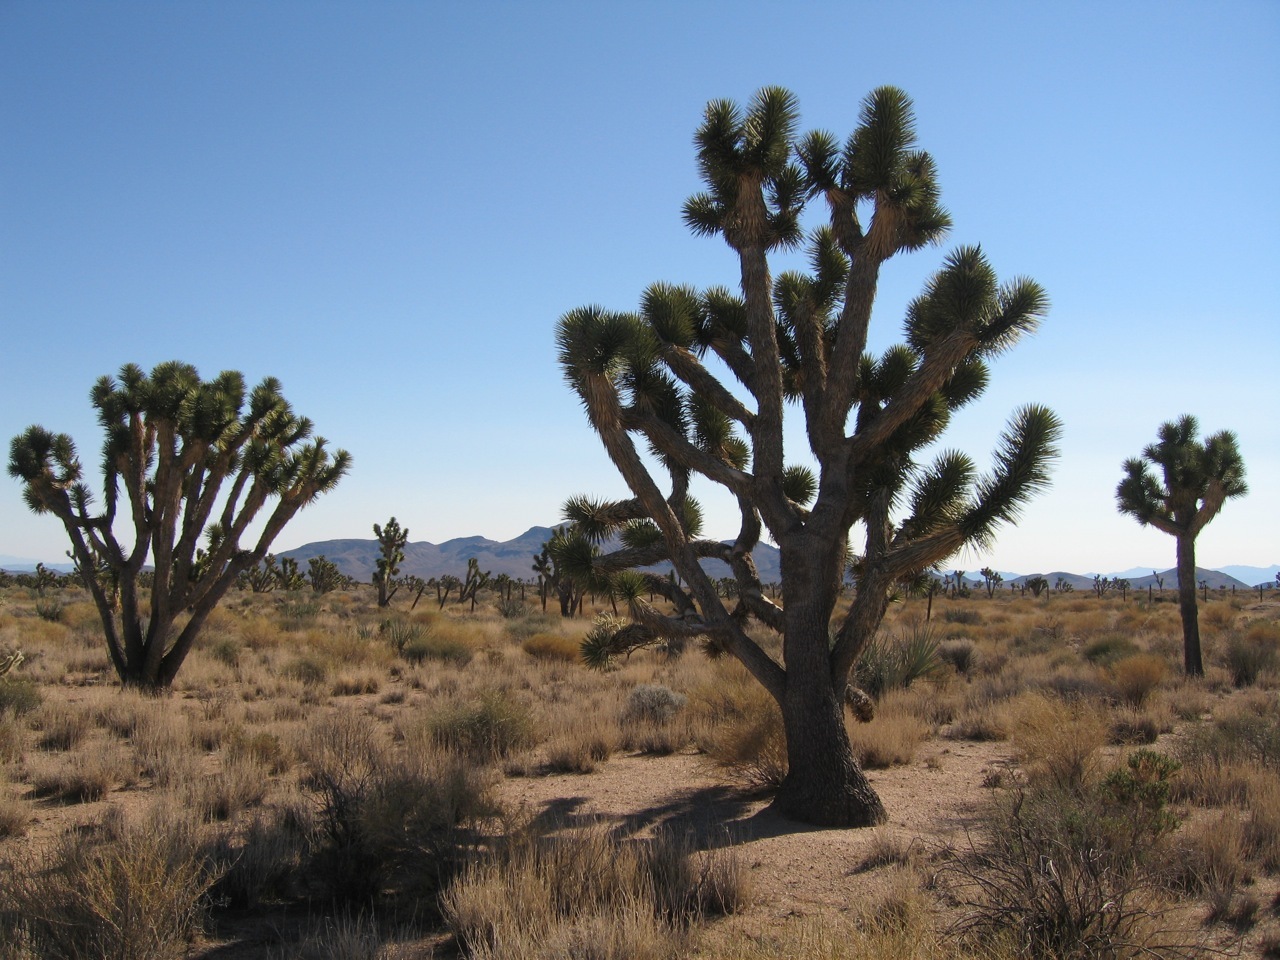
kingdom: Plantae
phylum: Tracheophyta
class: Liliopsida
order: Asparagales
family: Asparagaceae
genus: Yucca
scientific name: Yucca brevifolia
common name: Joshua tree
